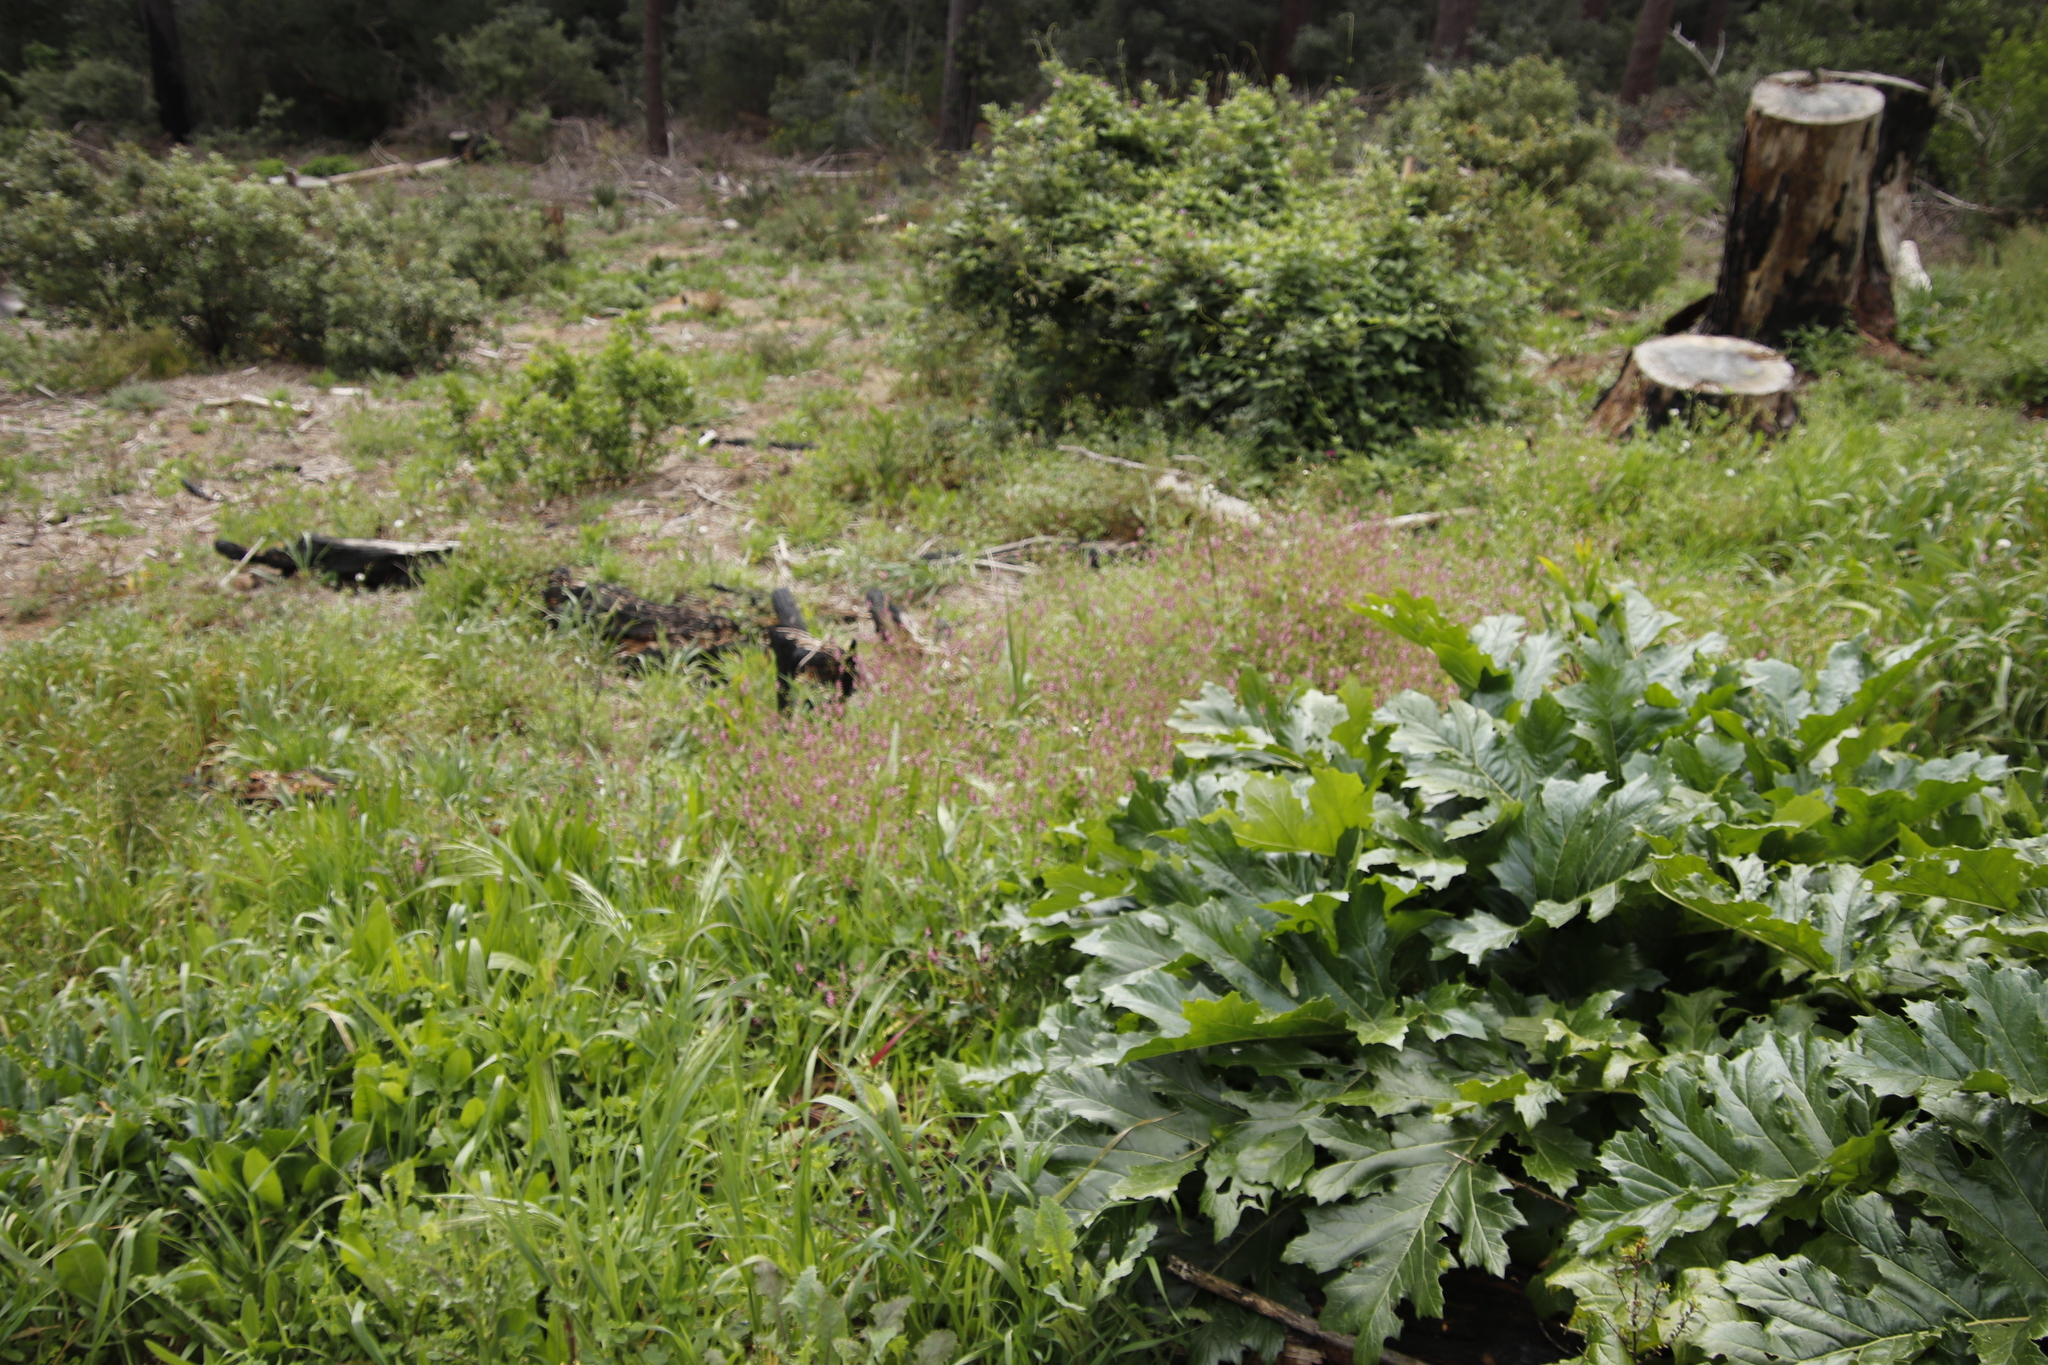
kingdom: Plantae
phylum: Tracheophyta
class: Magnoliopsida
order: Ranunculales
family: Papaveraceae
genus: Fumaria
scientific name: Fumaria muralis
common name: Common ramping-fumitory
